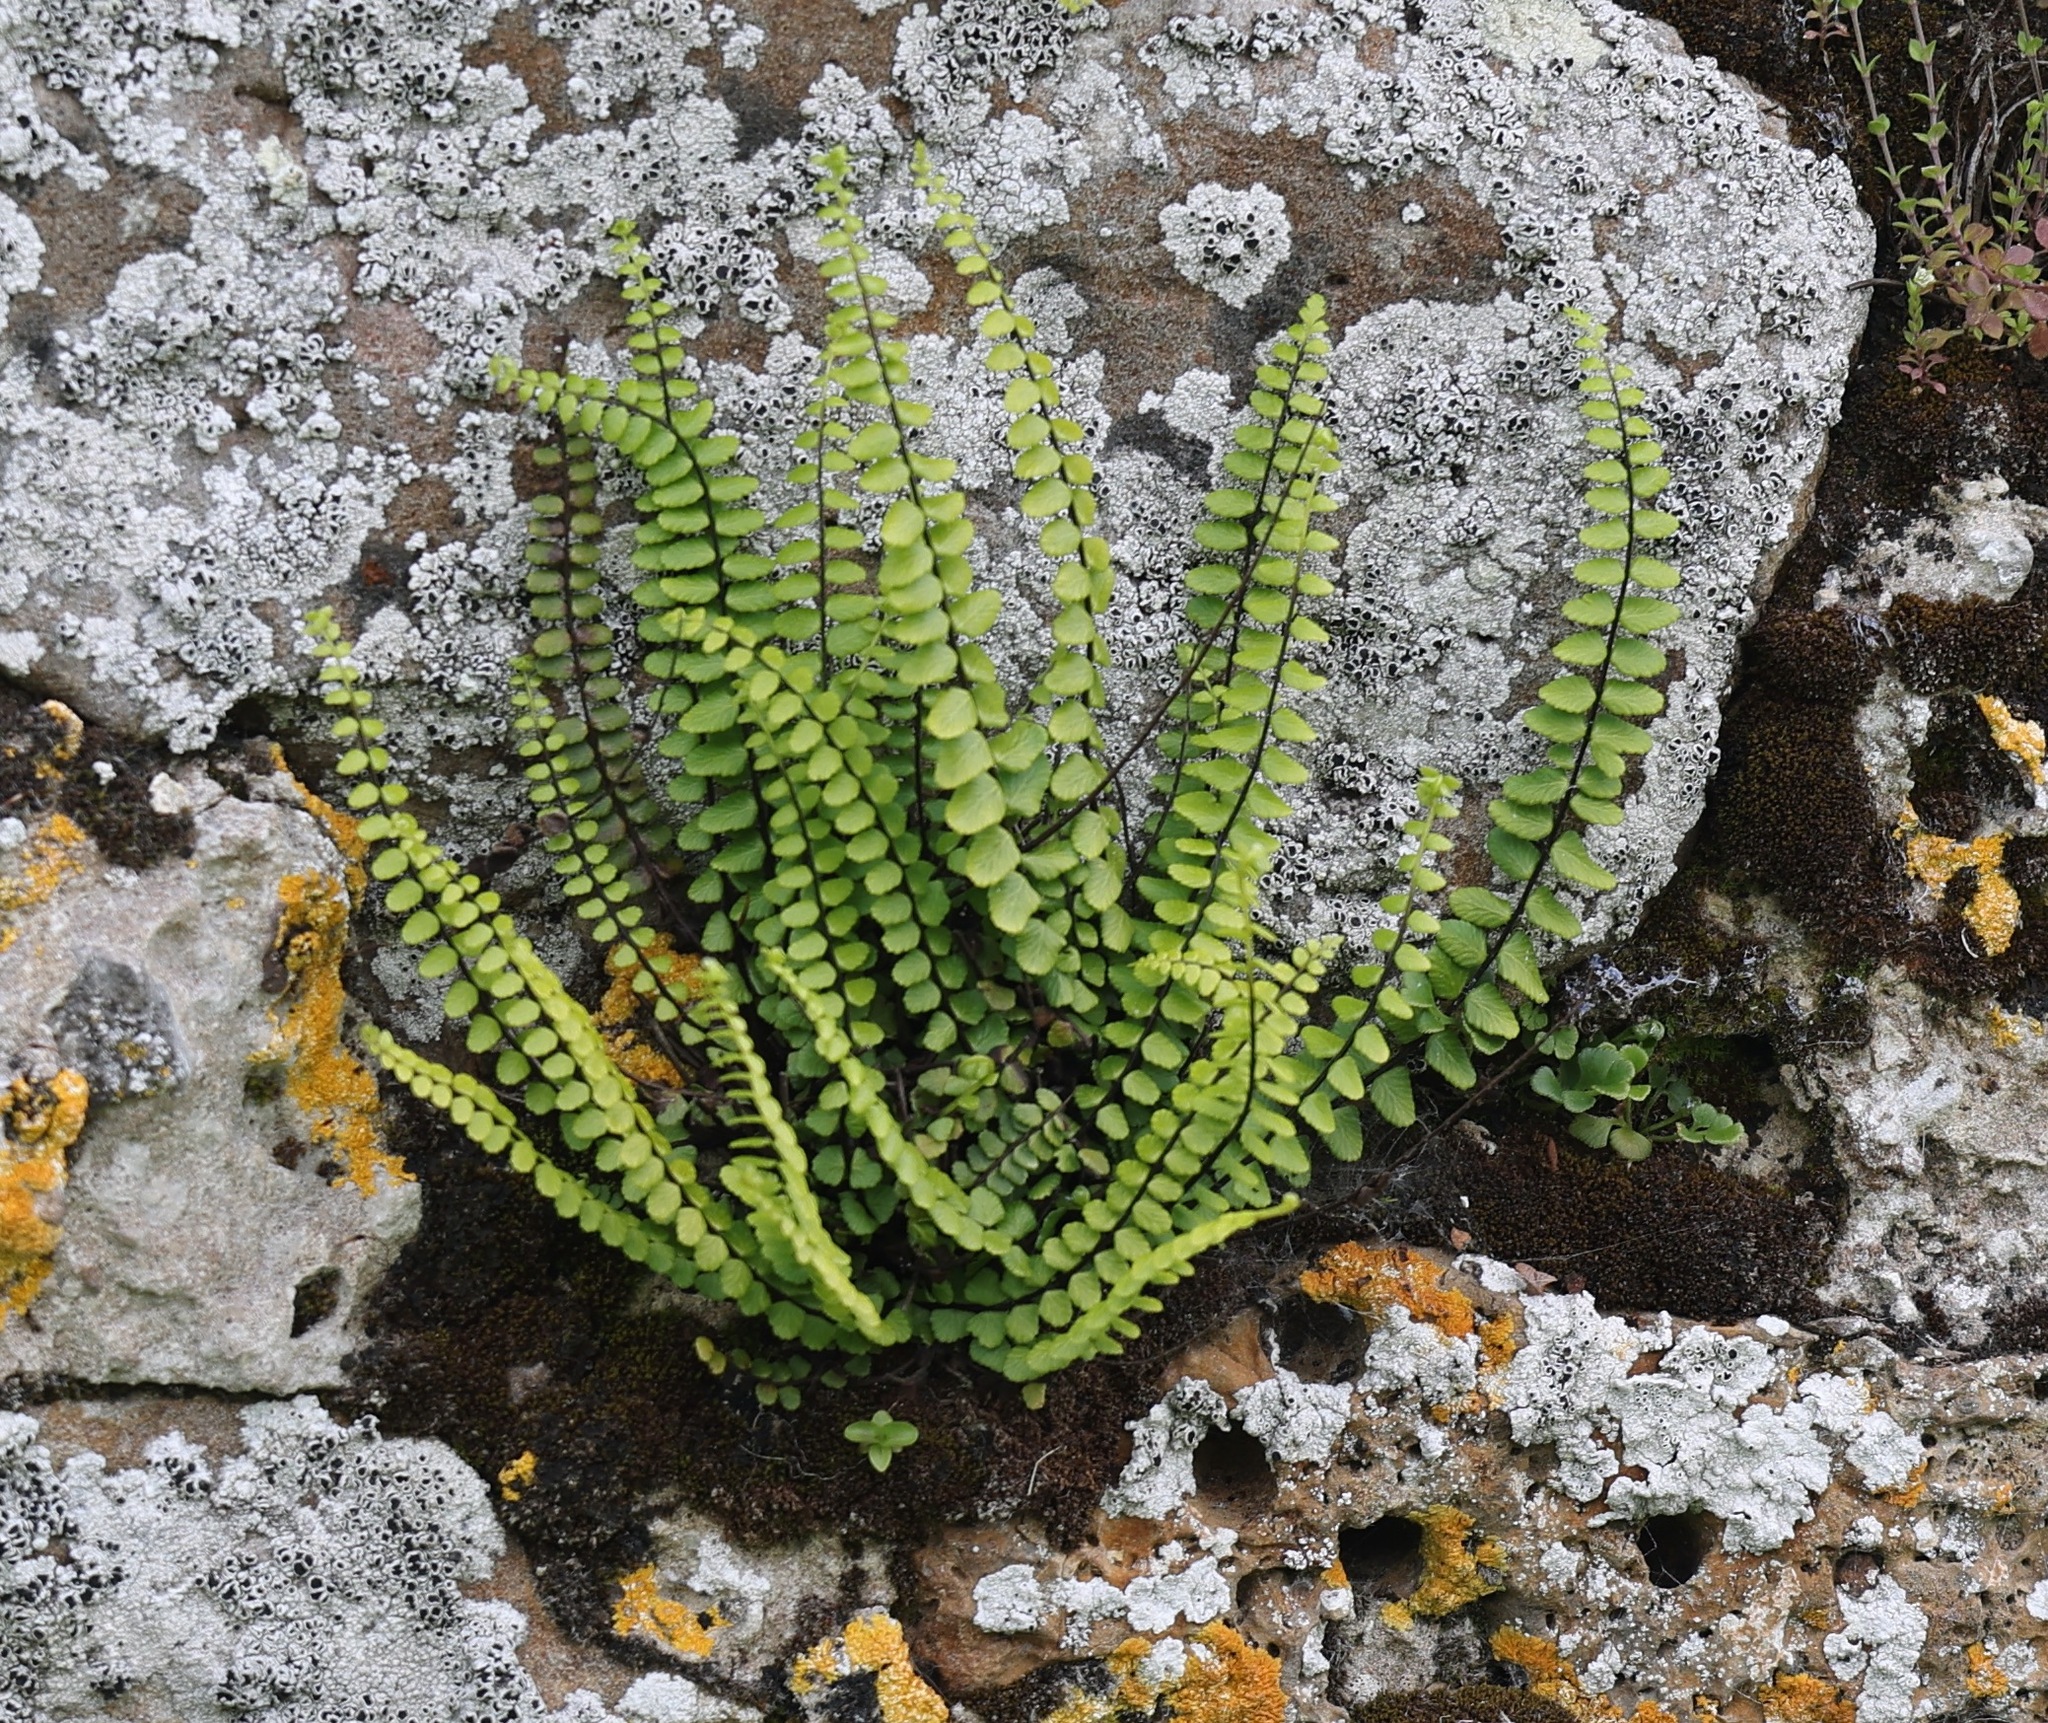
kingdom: Plantae
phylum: Tracheophyta
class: Polypodiopsida
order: Polypodiales
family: Aspleniaceae
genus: Asplenium
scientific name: Asplenium trichomanes
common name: Maidenhair spleenwort
